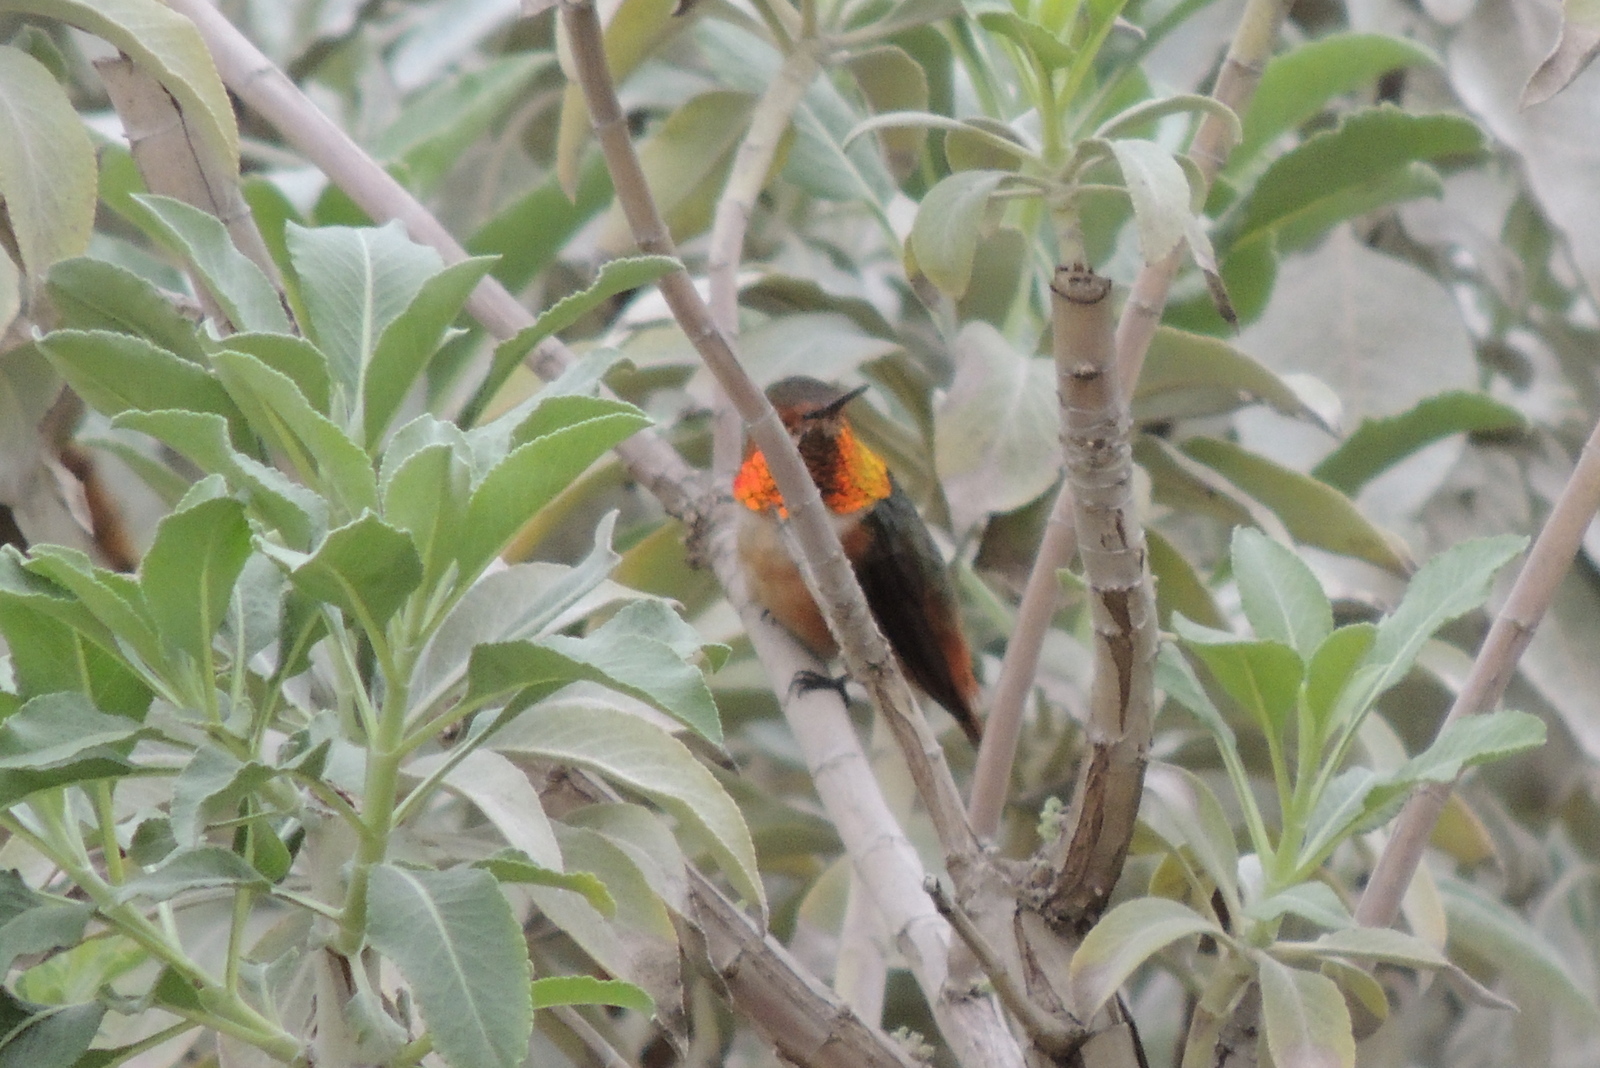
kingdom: Animalia
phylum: Chordata
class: Aves
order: Apodiformes
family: Trochilidae
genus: Selasphorus
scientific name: Selasphorus
